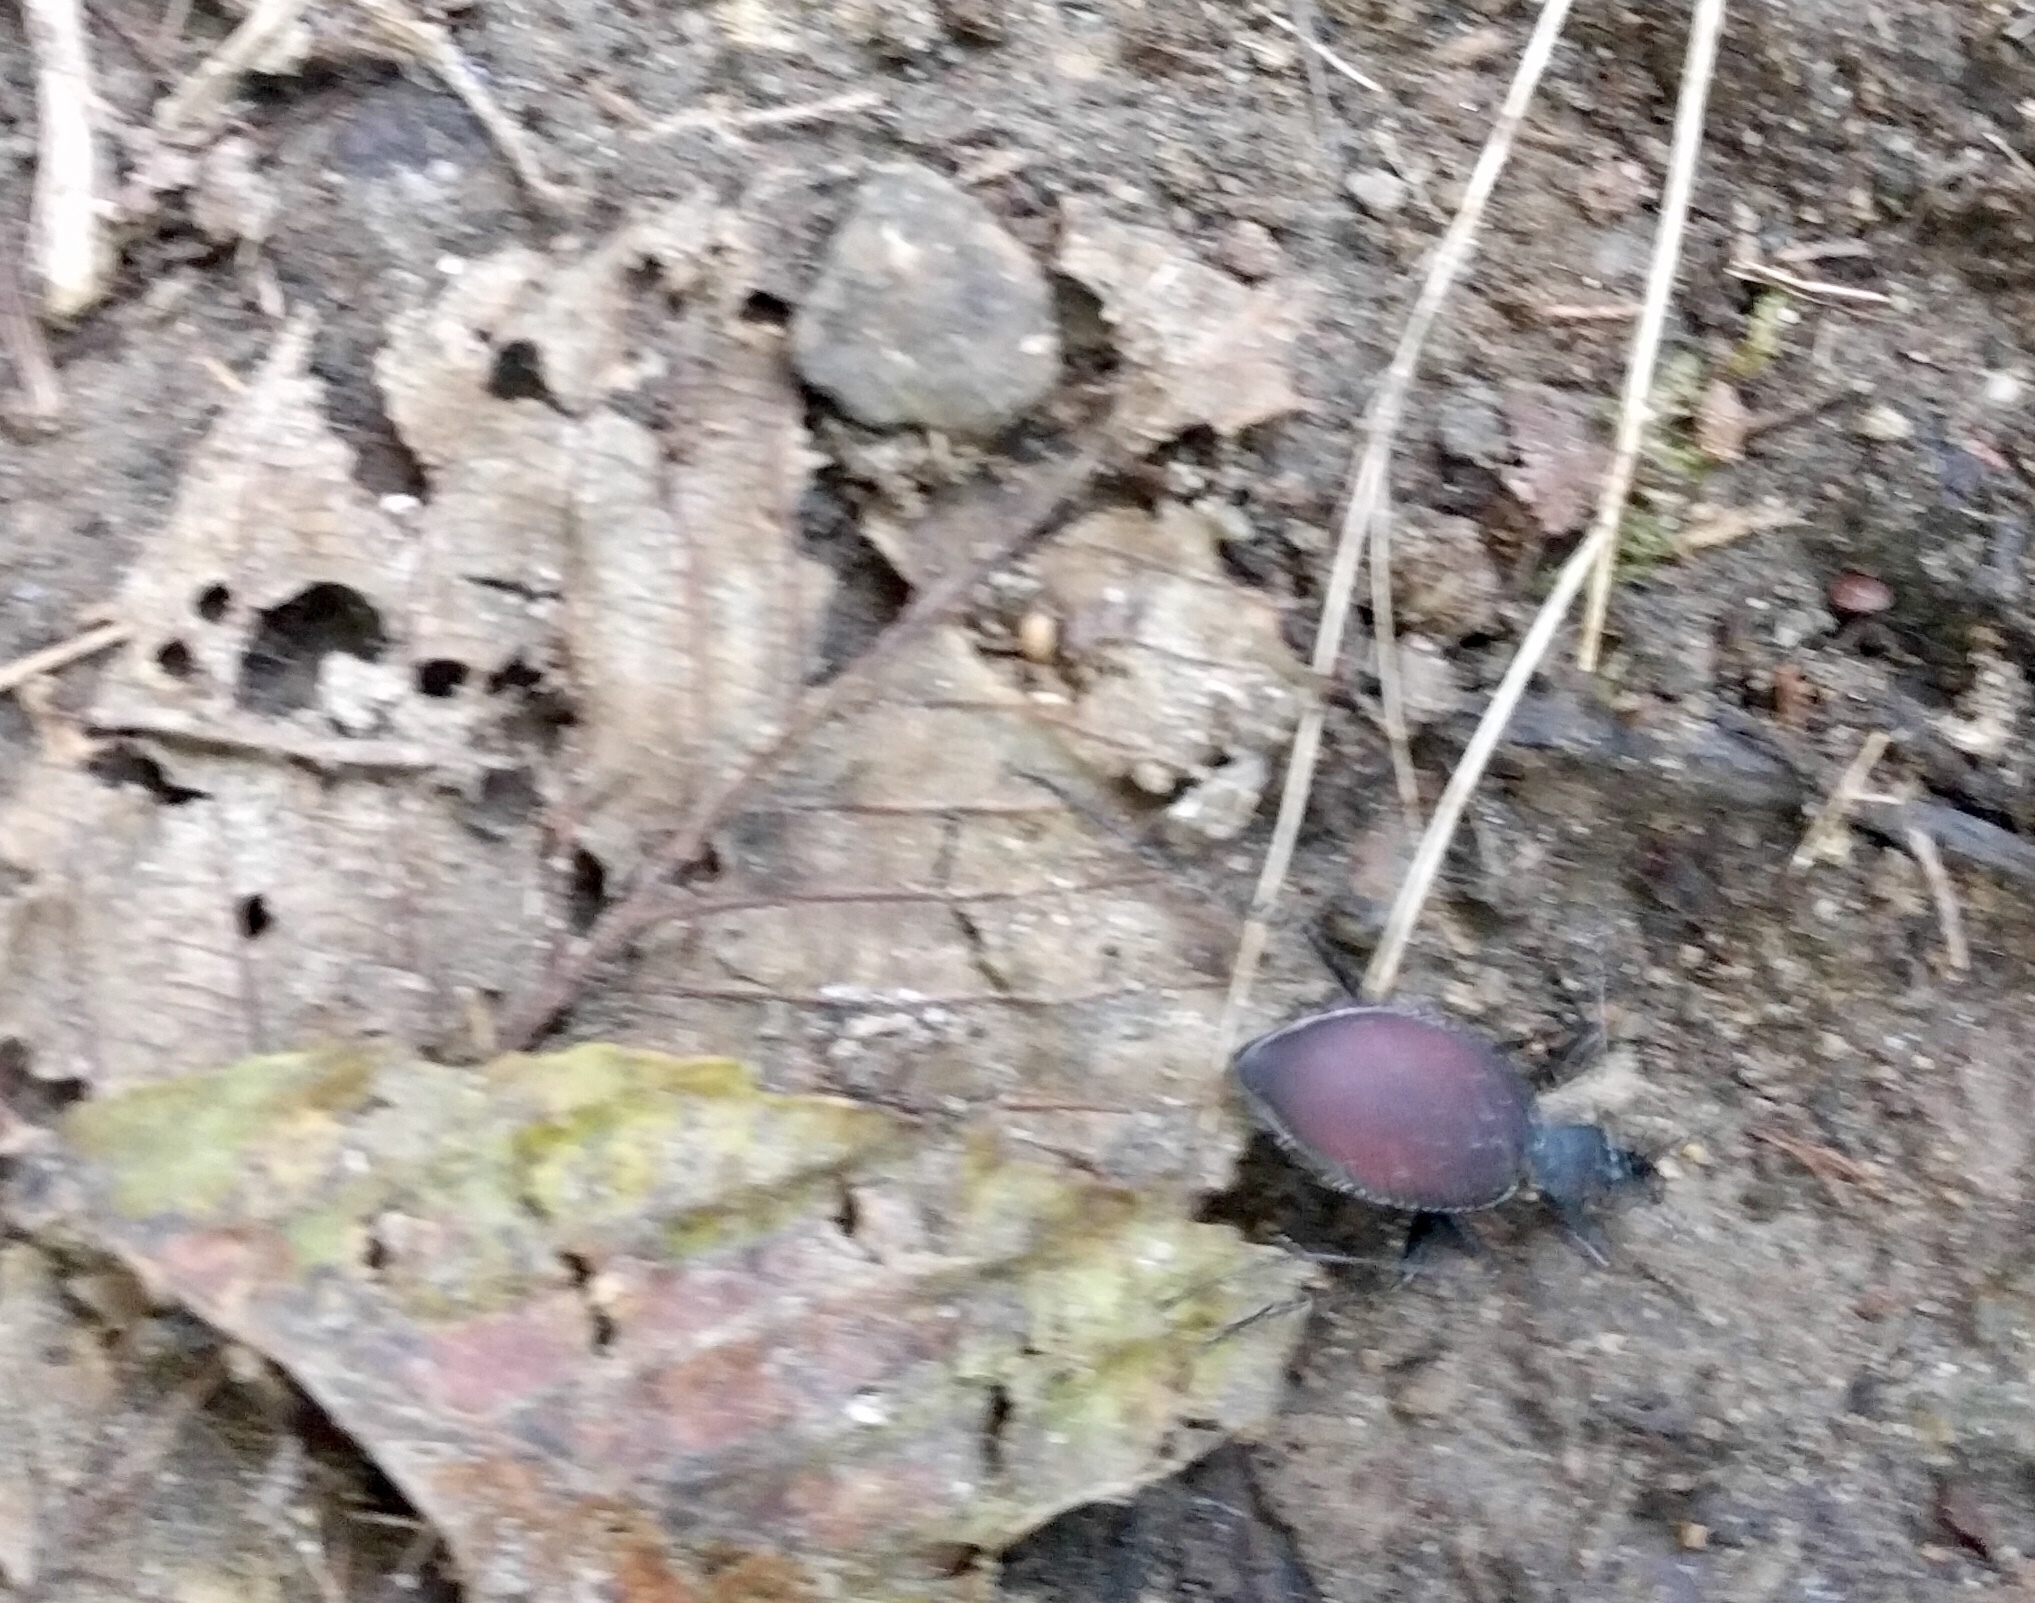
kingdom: Animalia
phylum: Arthropoda
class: Insecta
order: Coleoptera
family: Carabidae
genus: Scaphinotus
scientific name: Scaphinotus angusticollis
